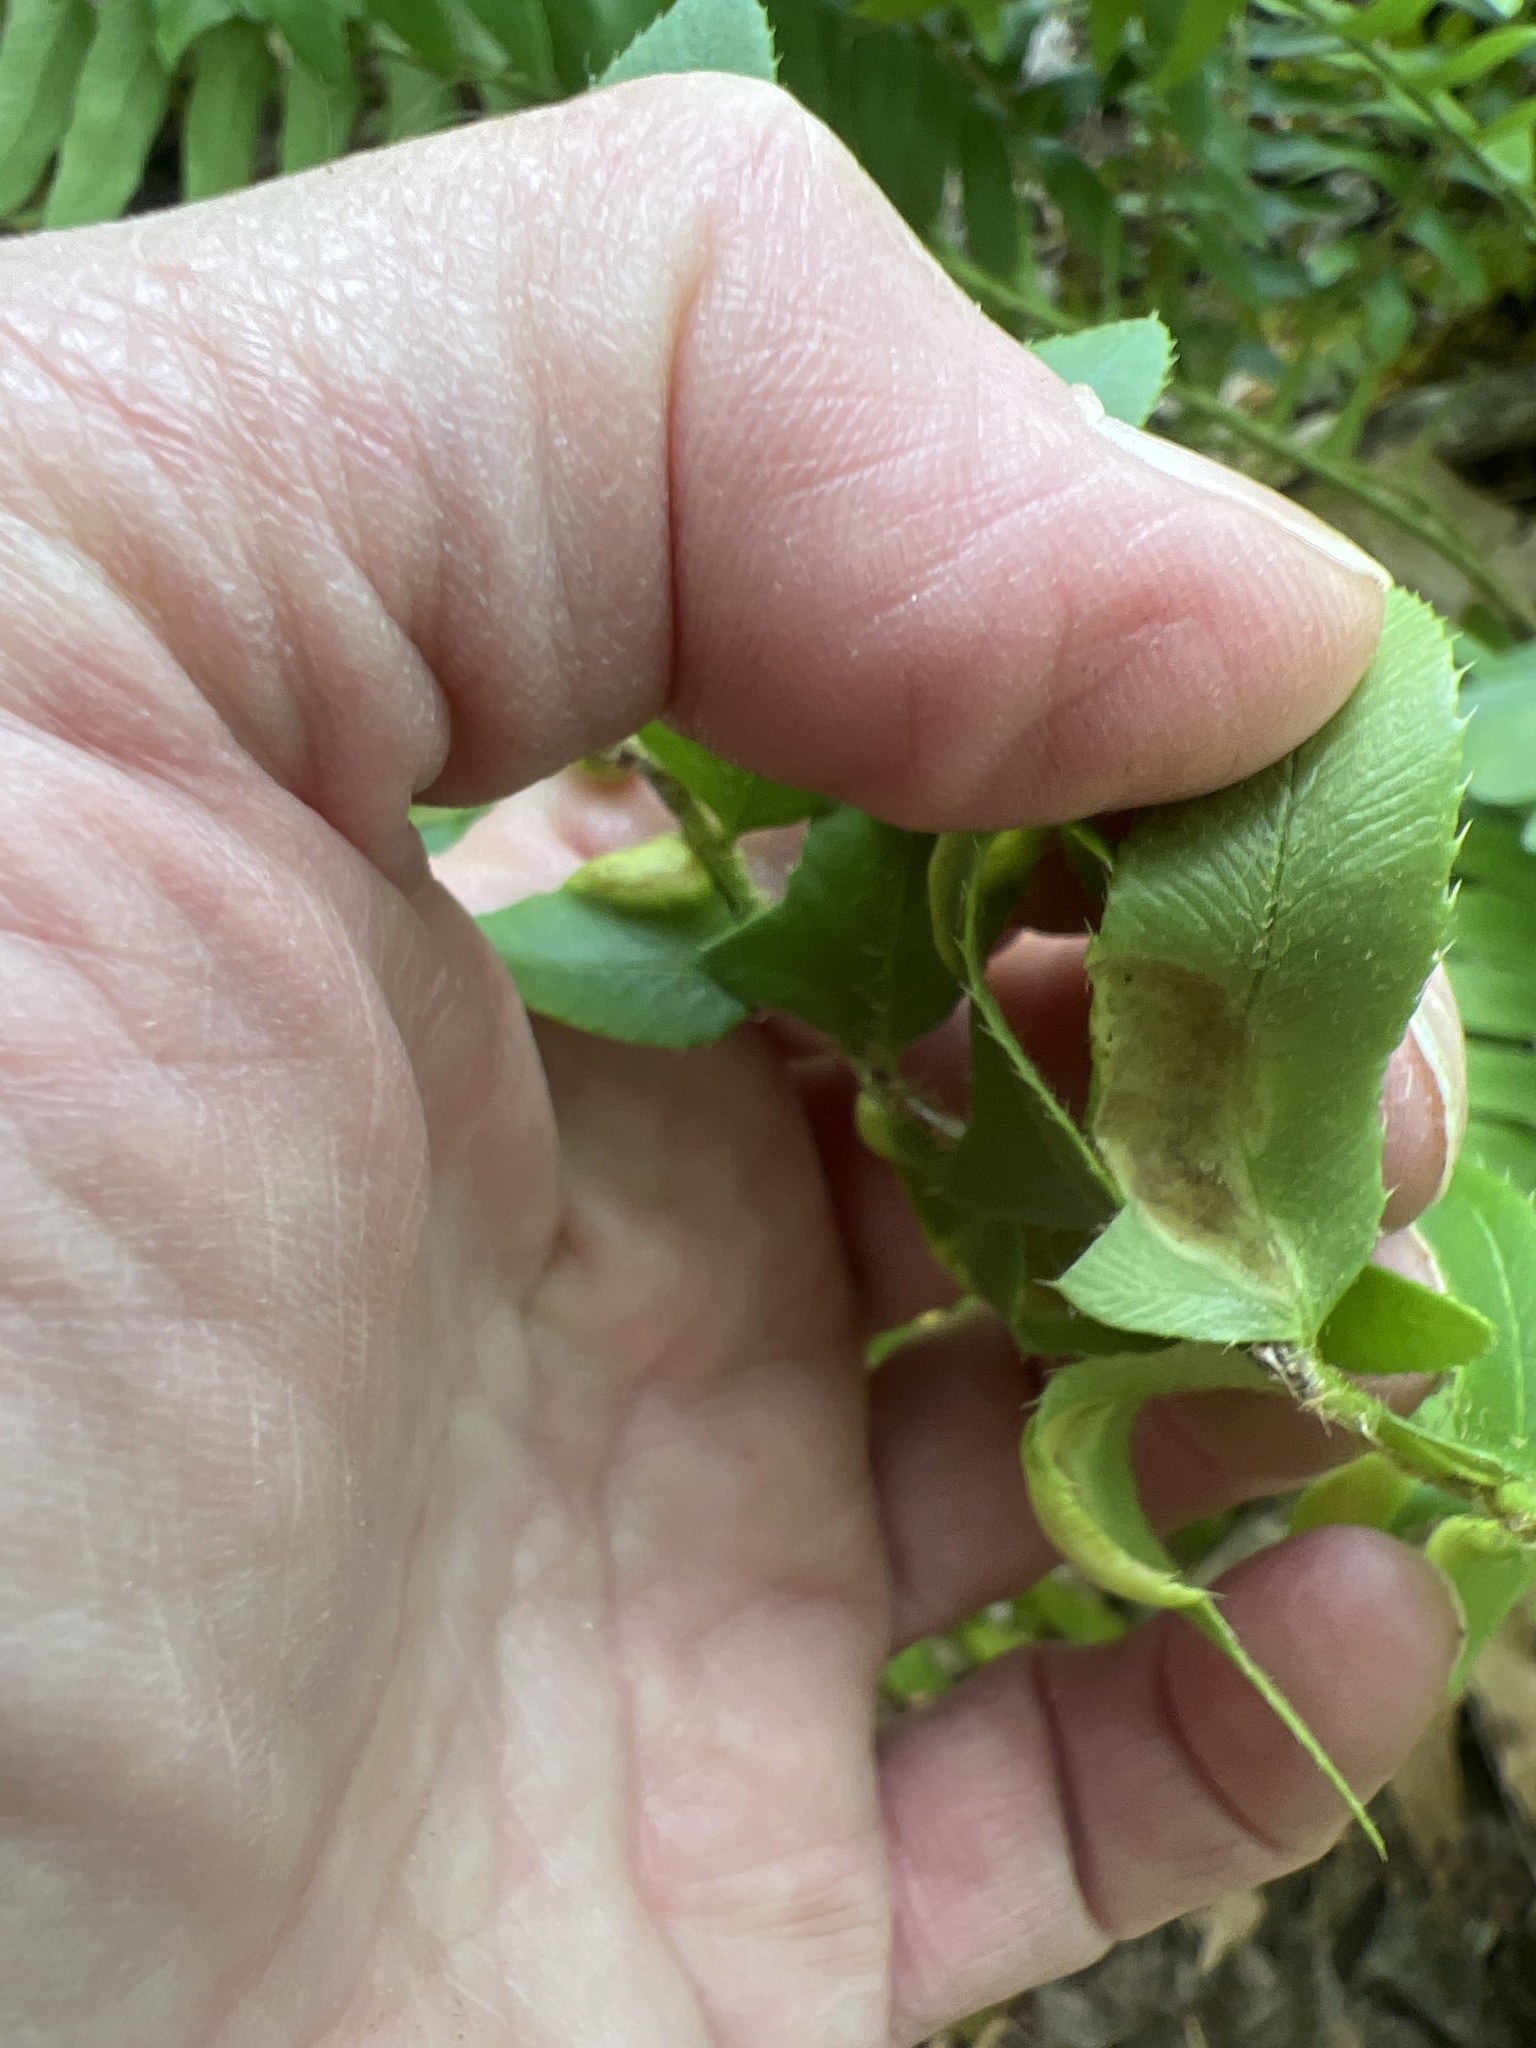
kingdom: Plantae
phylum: Tracheophyta
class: Polypodiopsida
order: Polypodiales
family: Dryopteridaceae
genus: Polystichum
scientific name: Polystichum acrostichoides
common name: Christmas fern
